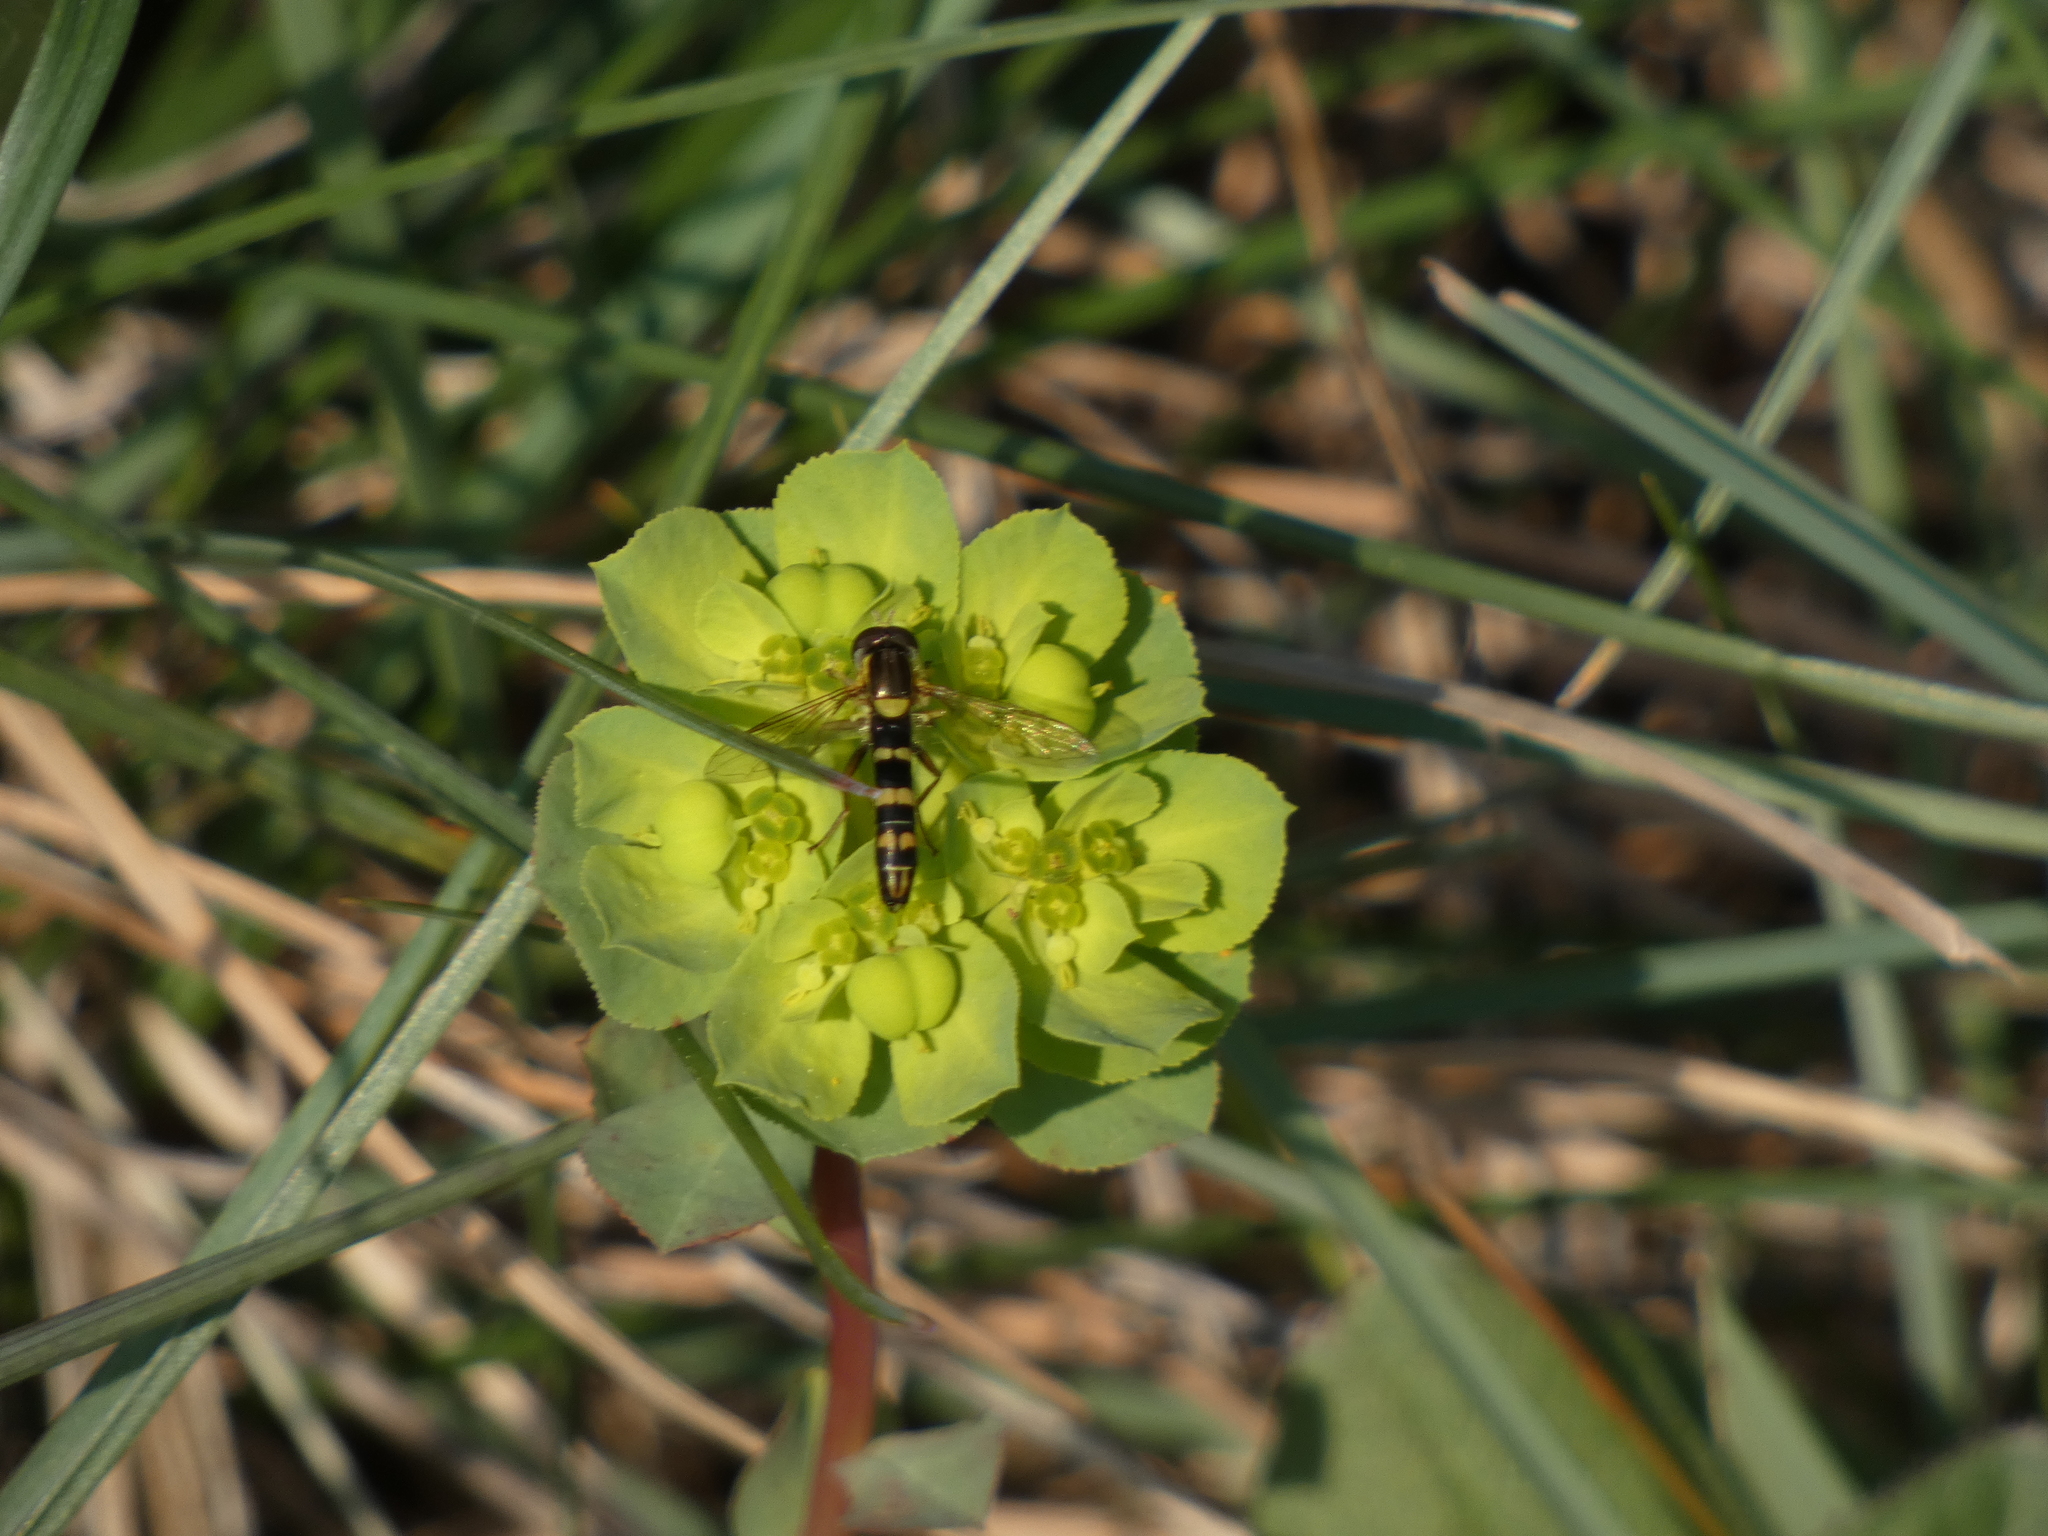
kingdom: Animalia
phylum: Arthropoda
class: Insecta
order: Diptera
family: Syrphidae
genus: Sphaerophoria
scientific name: Sphaerophoria
